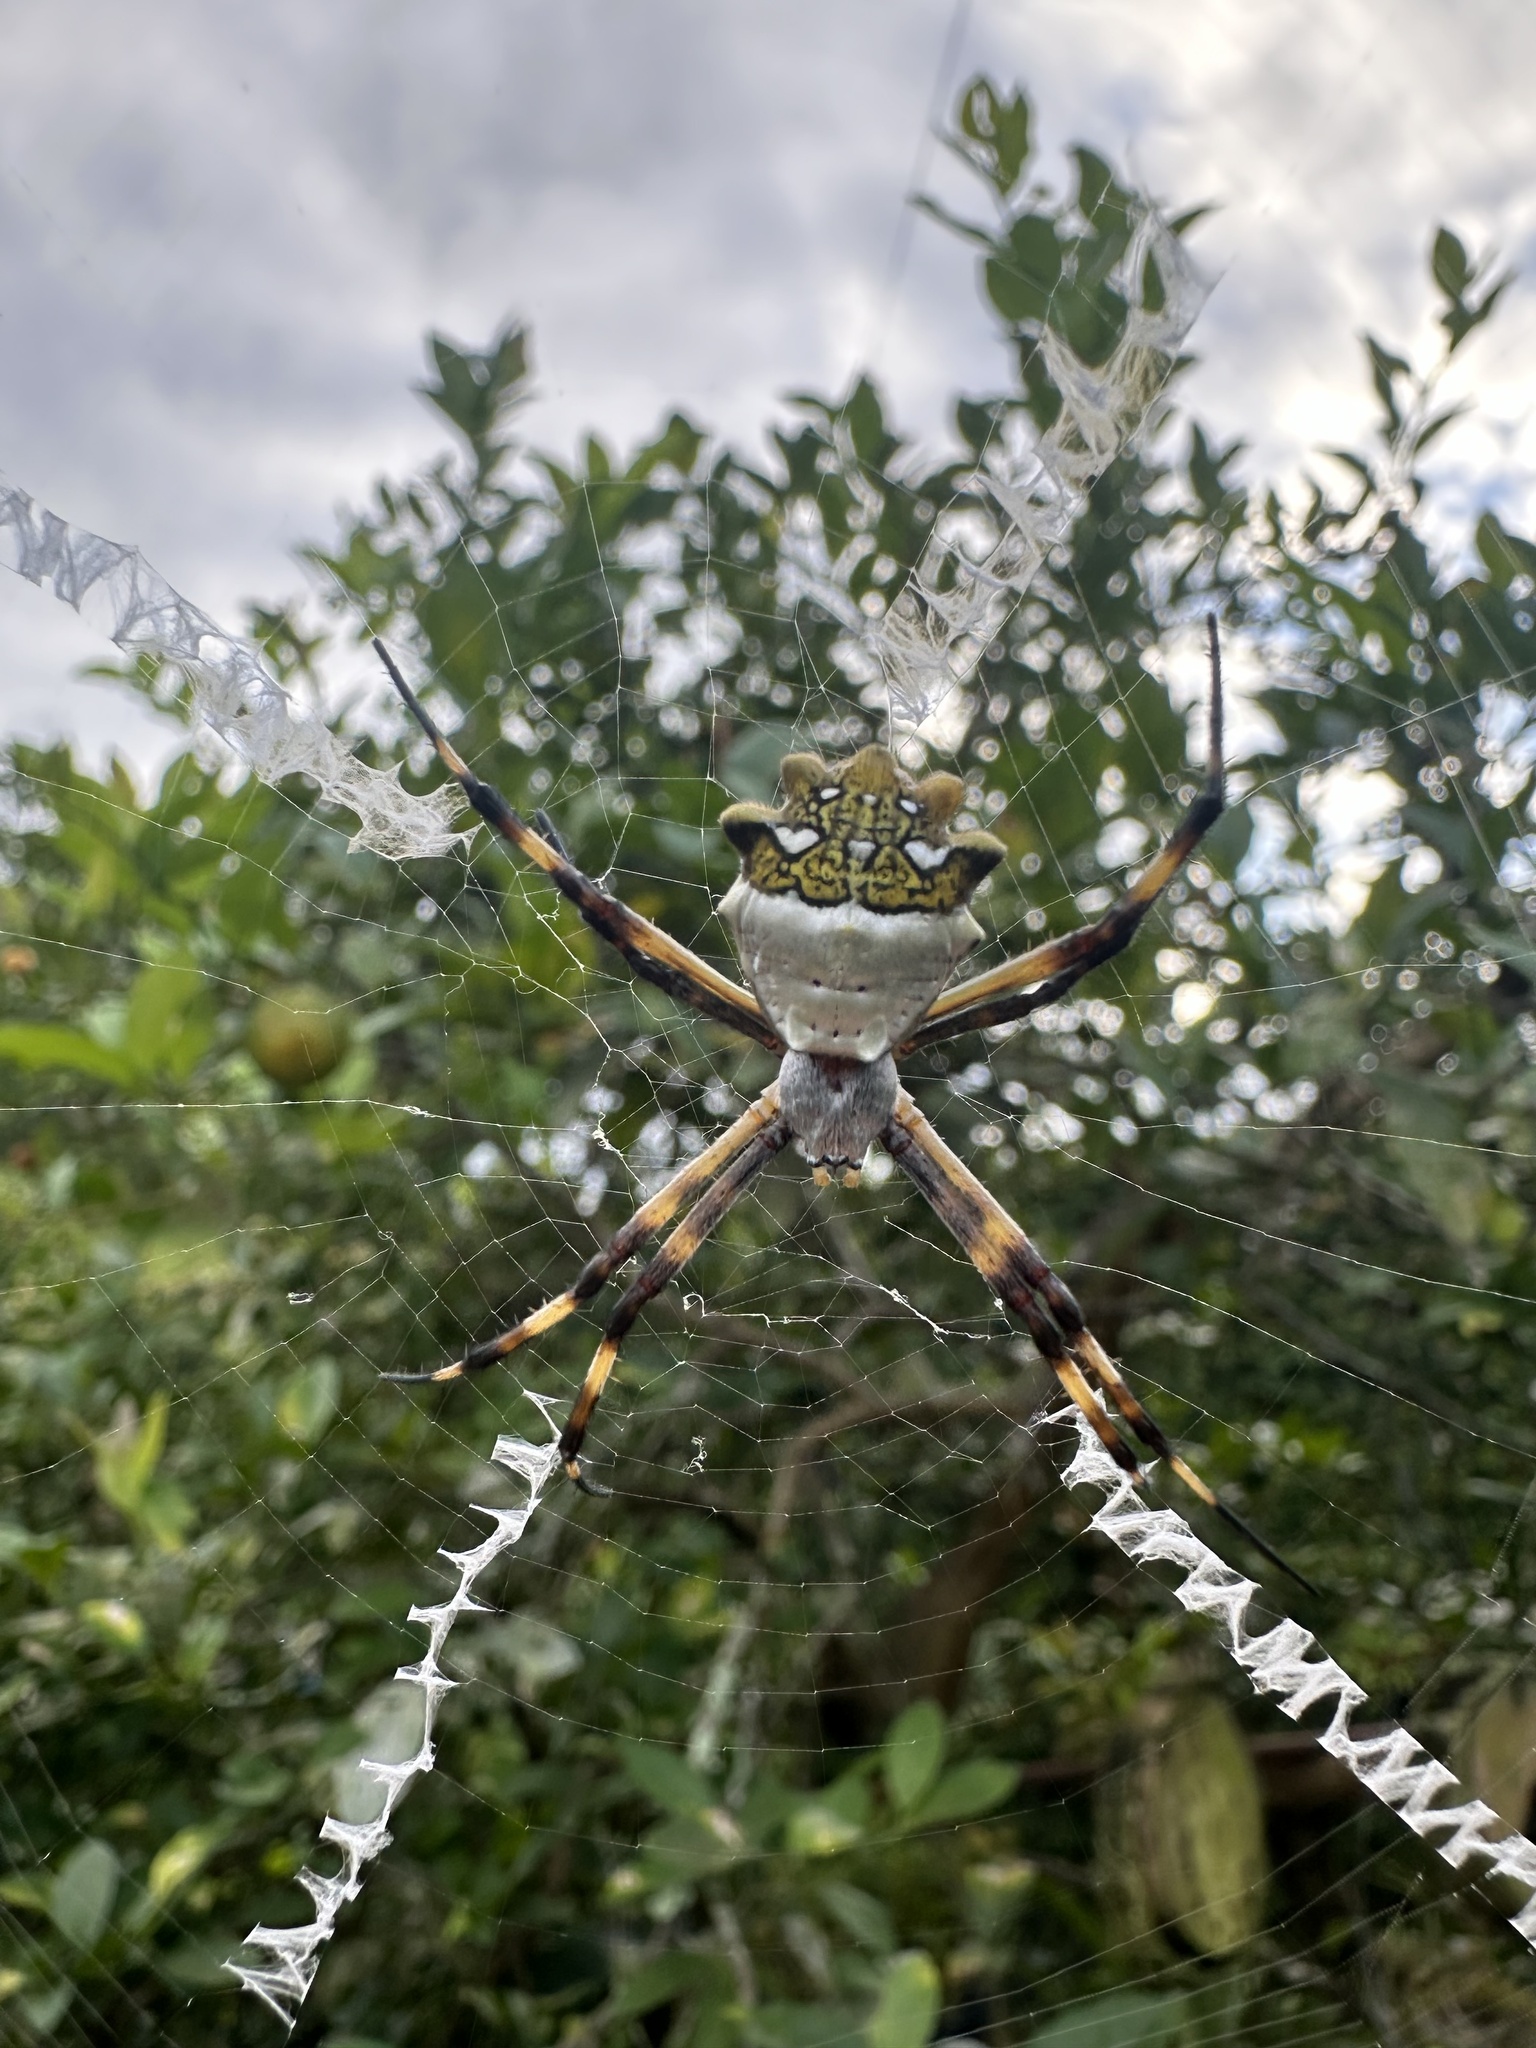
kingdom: Animalia
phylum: Arthropoda
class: Arachnida
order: Araneae
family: Araneidae
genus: Argiope
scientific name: Argiope argentata
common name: Orb weavers
